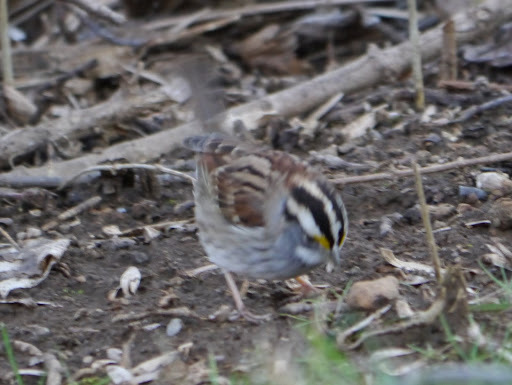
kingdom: Animalia
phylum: Chordata
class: Aves
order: Passeriformes
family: Passerellidae
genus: Zonotrichia
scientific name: Zonotrichia albicollis
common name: White-throated sparrow
